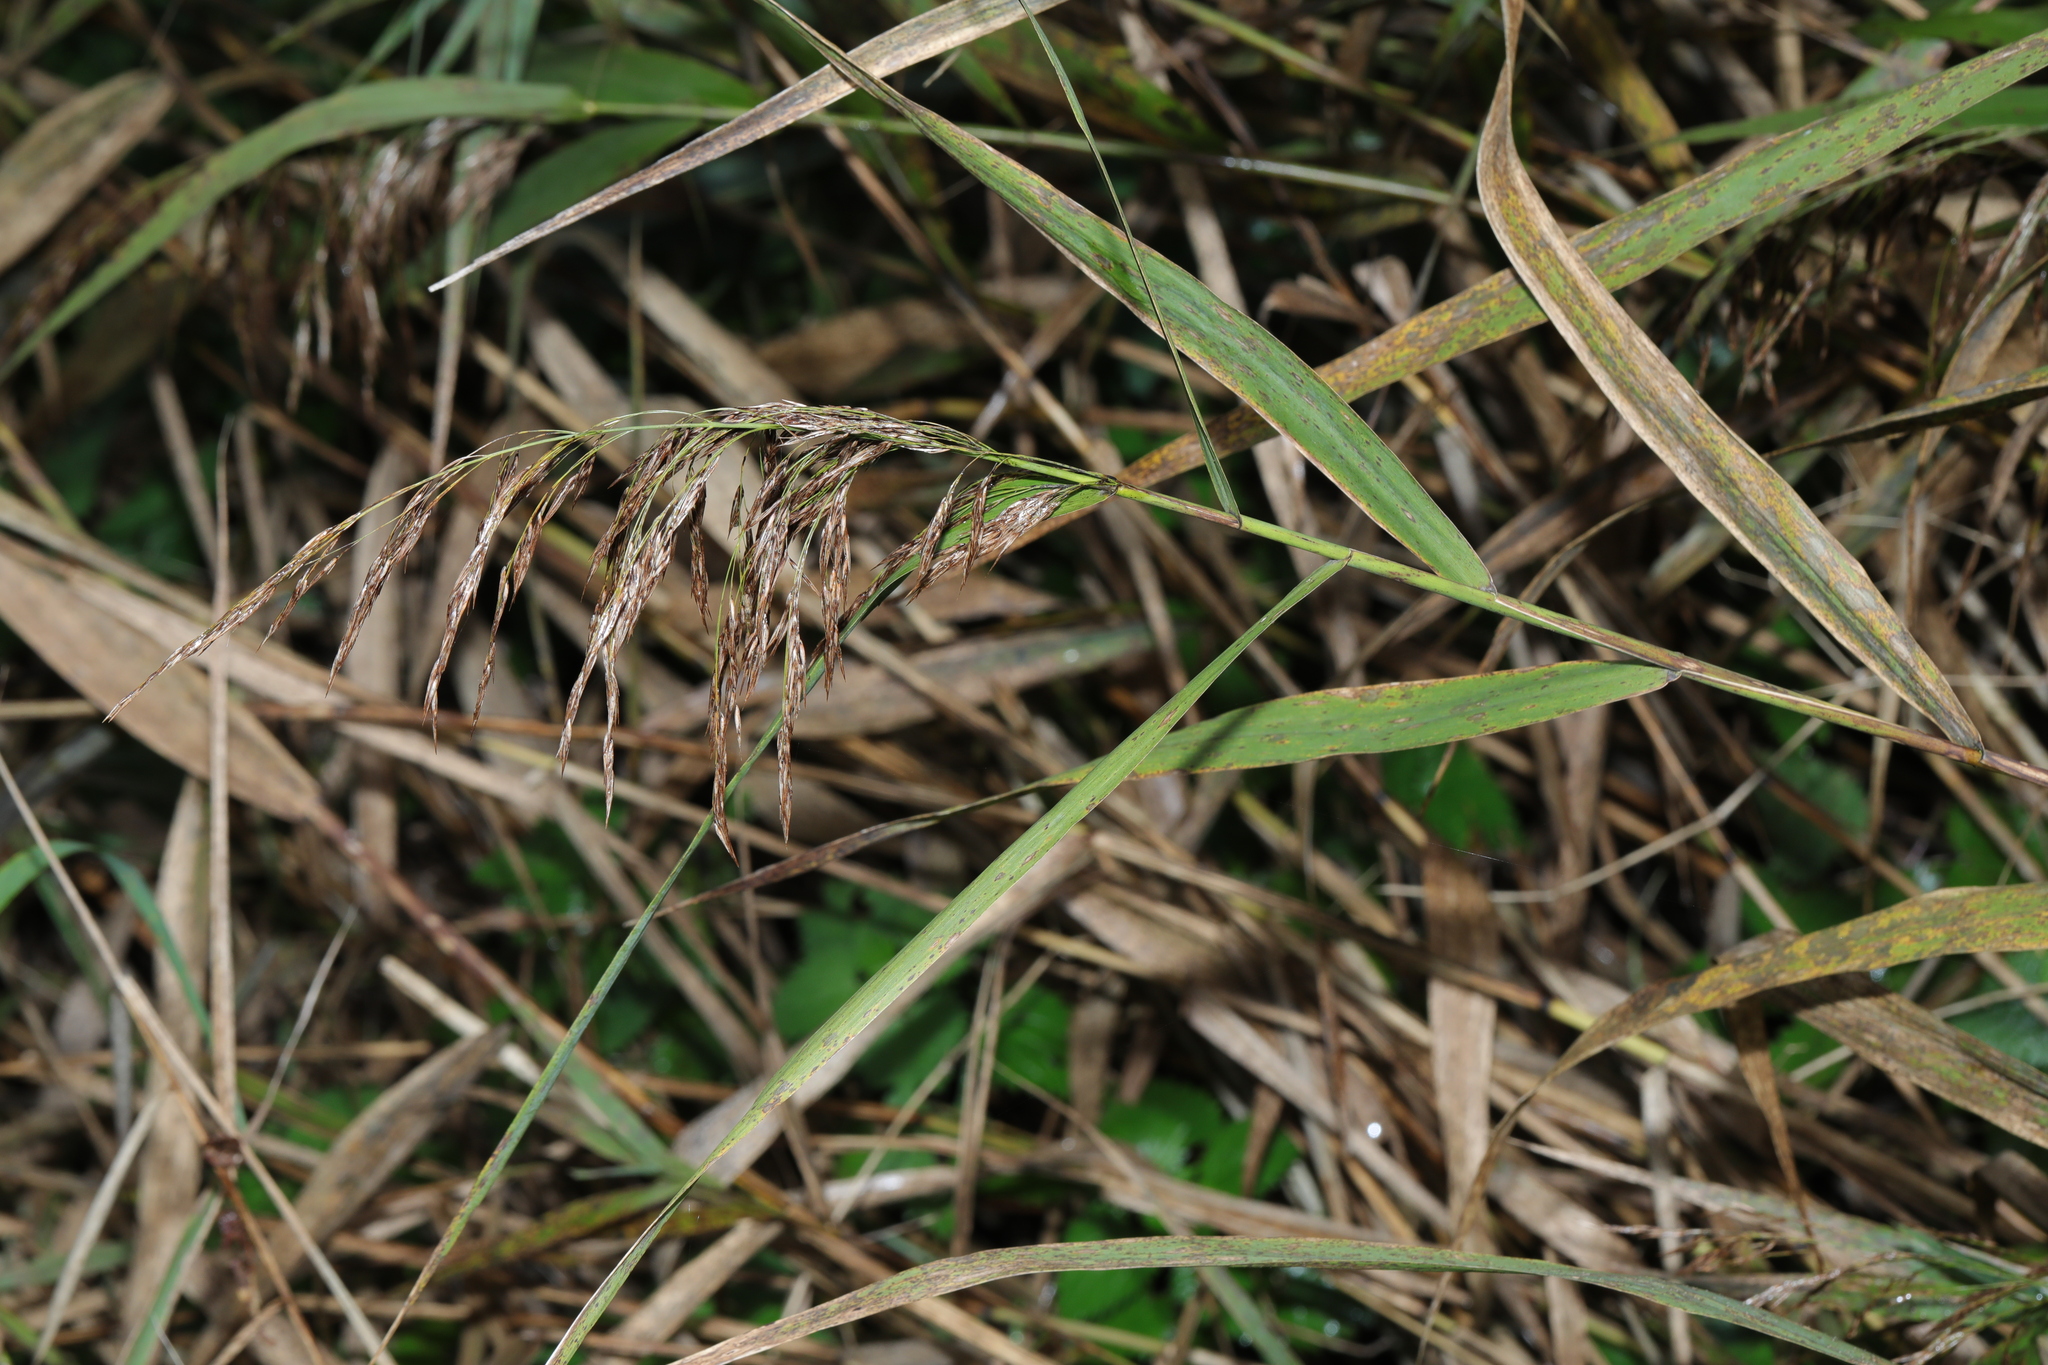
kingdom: Plantae
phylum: Tracheophyta
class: Liliopsida
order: Poales
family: Poaceae
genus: Phragmites
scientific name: Phragmites australis
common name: Common reed
